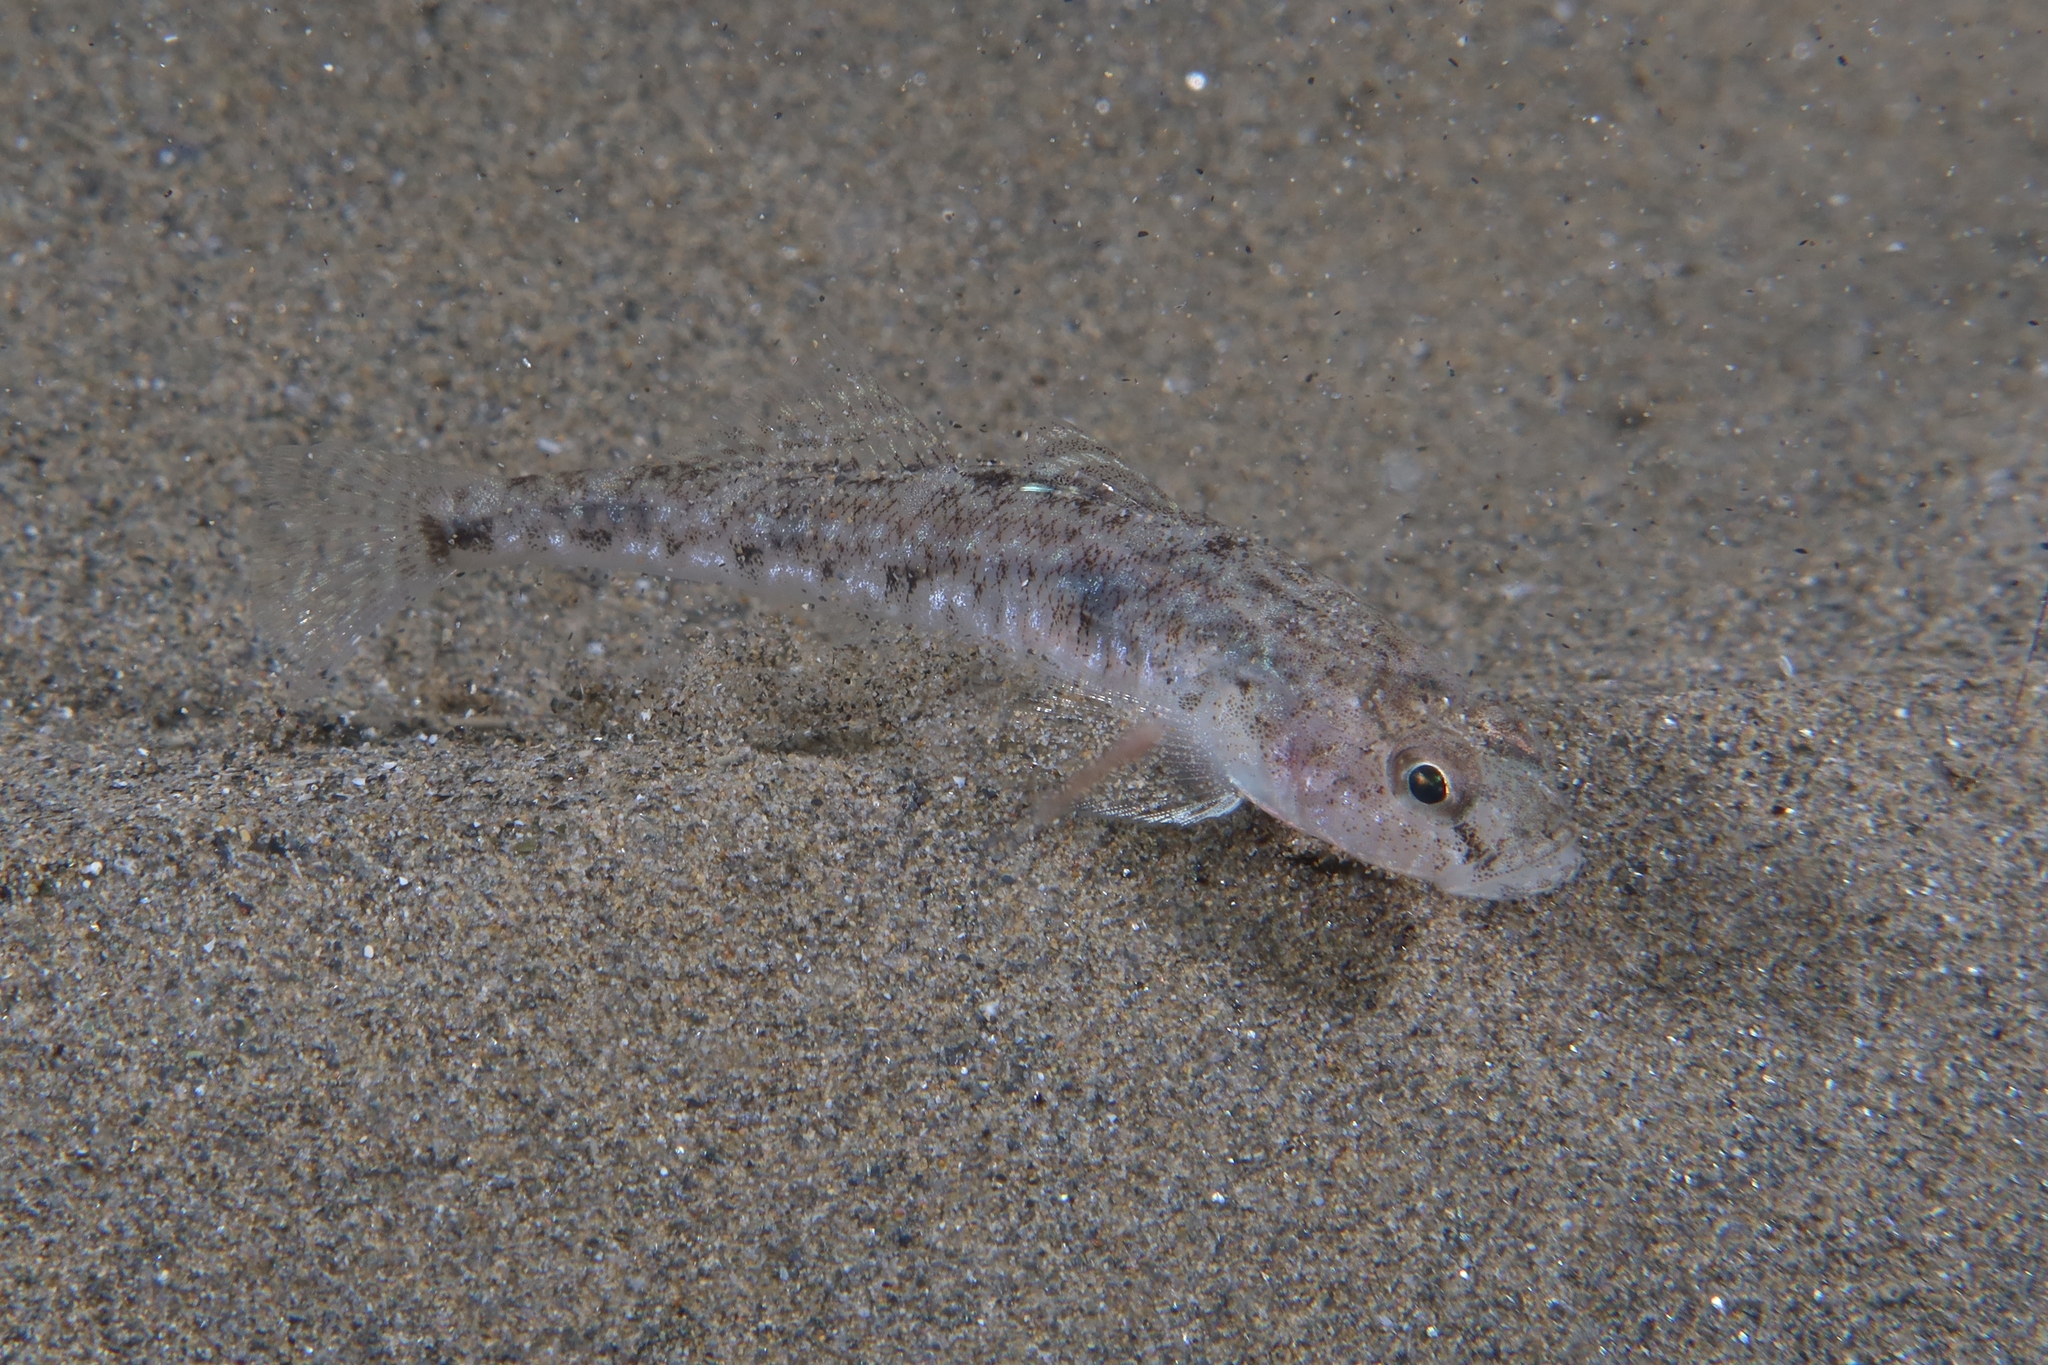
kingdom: Animalia
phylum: Chordata
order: Perciformes
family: Gobiidae
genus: Pomatoschistus
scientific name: Pomatoschistus minutus
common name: Sand goby
